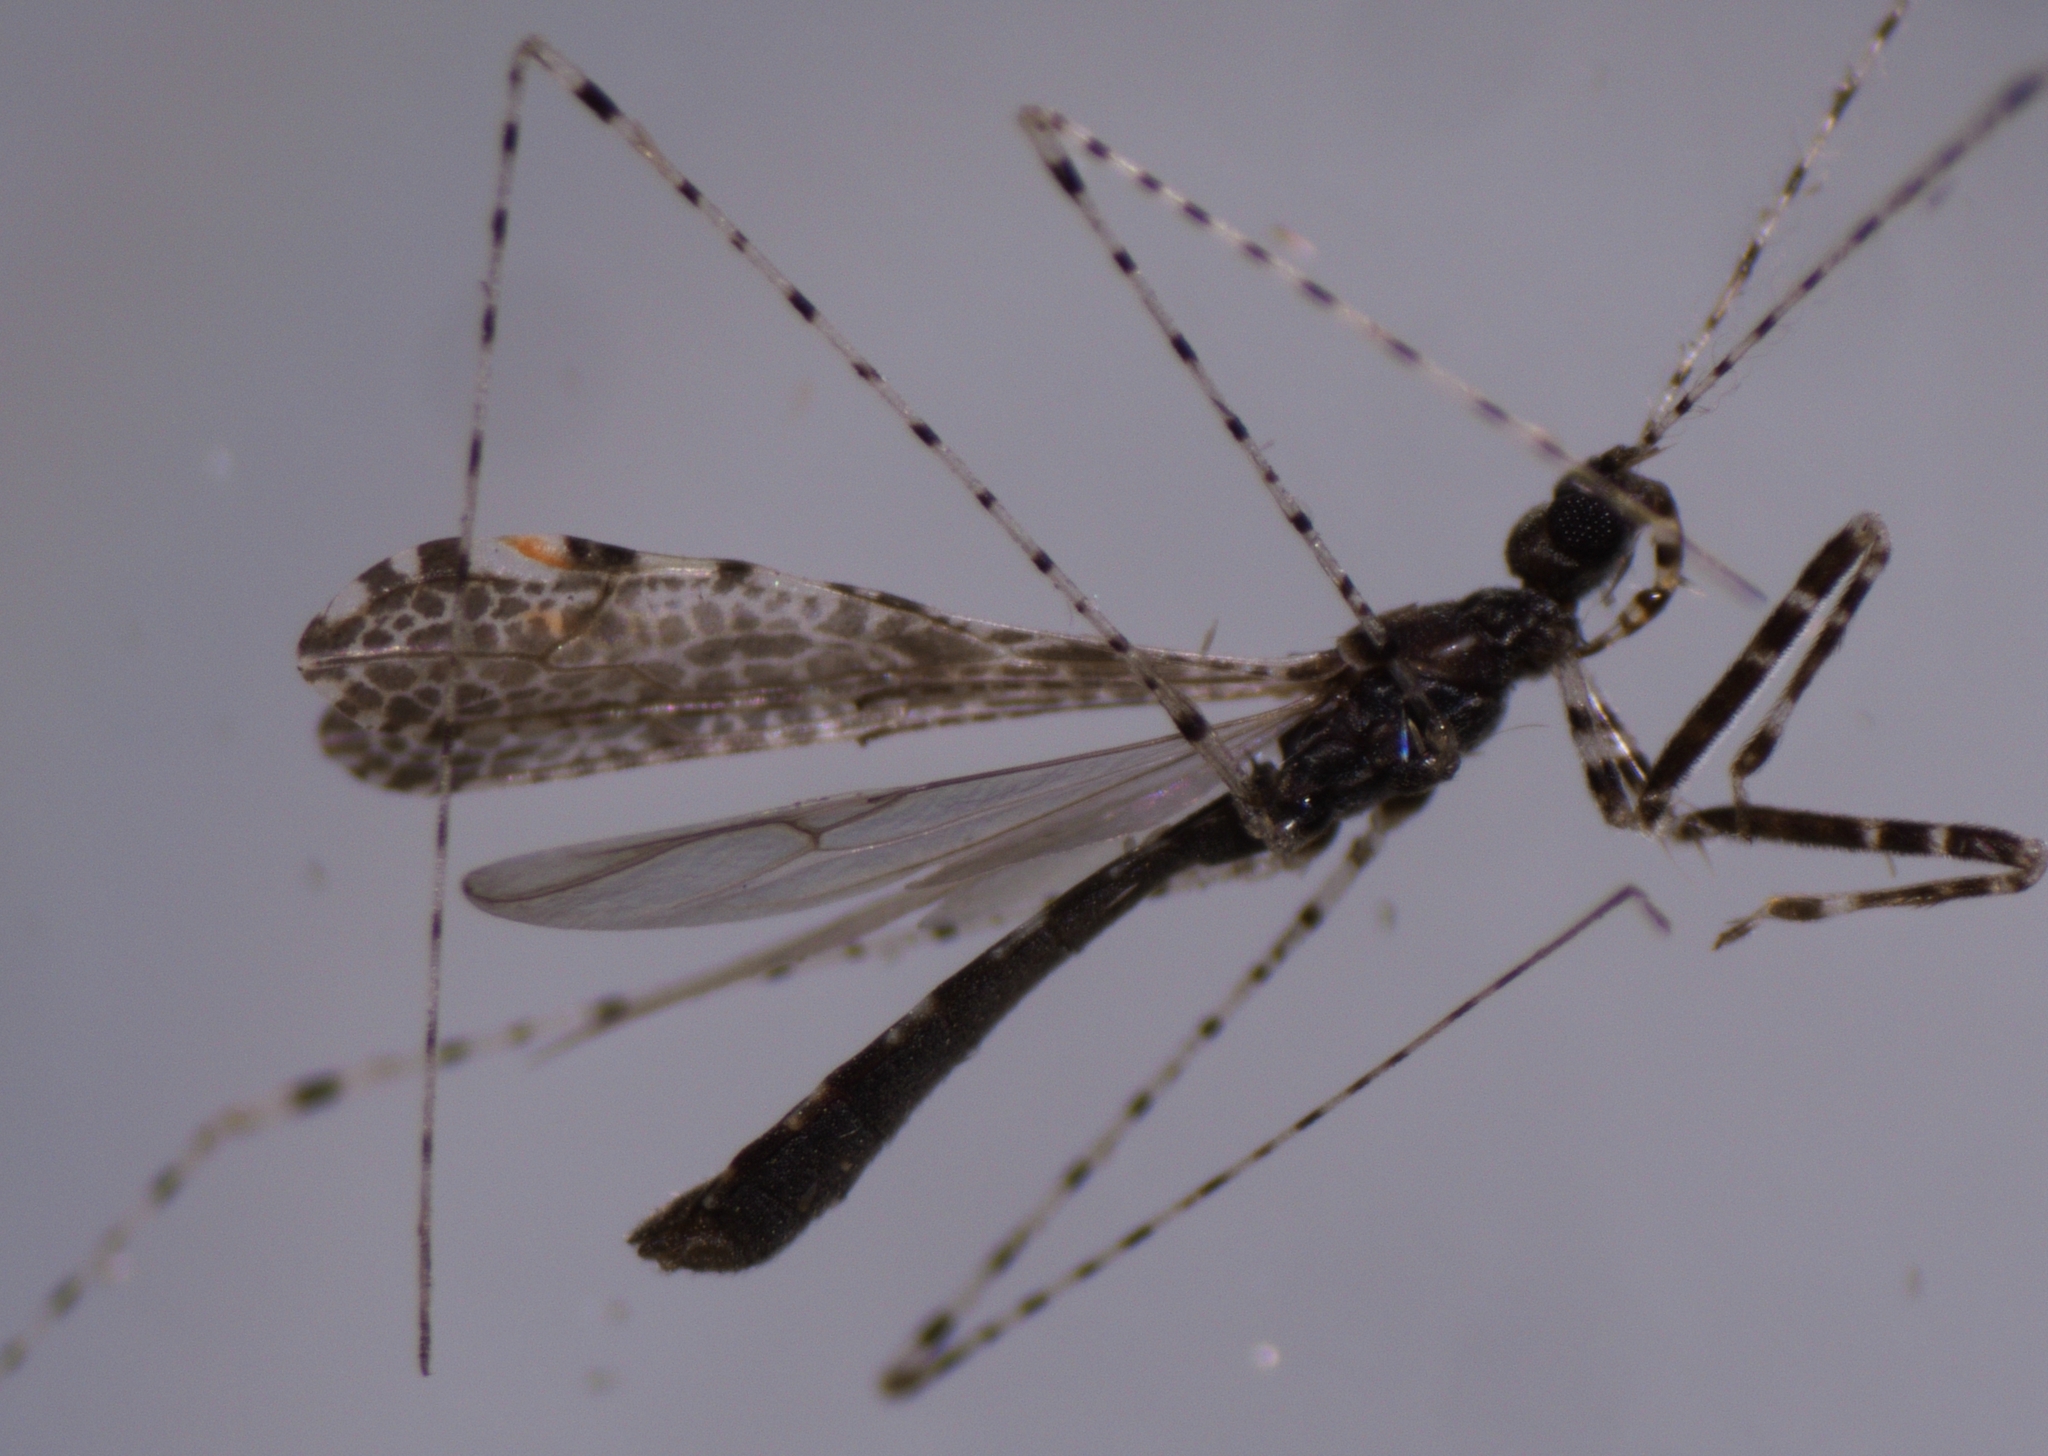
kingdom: Animalia
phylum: Arthropoda
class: Insecta
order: Hemiptera
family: Reduviidae
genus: Empicoris
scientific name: Empicoris minutus
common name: Thread-legged bug
